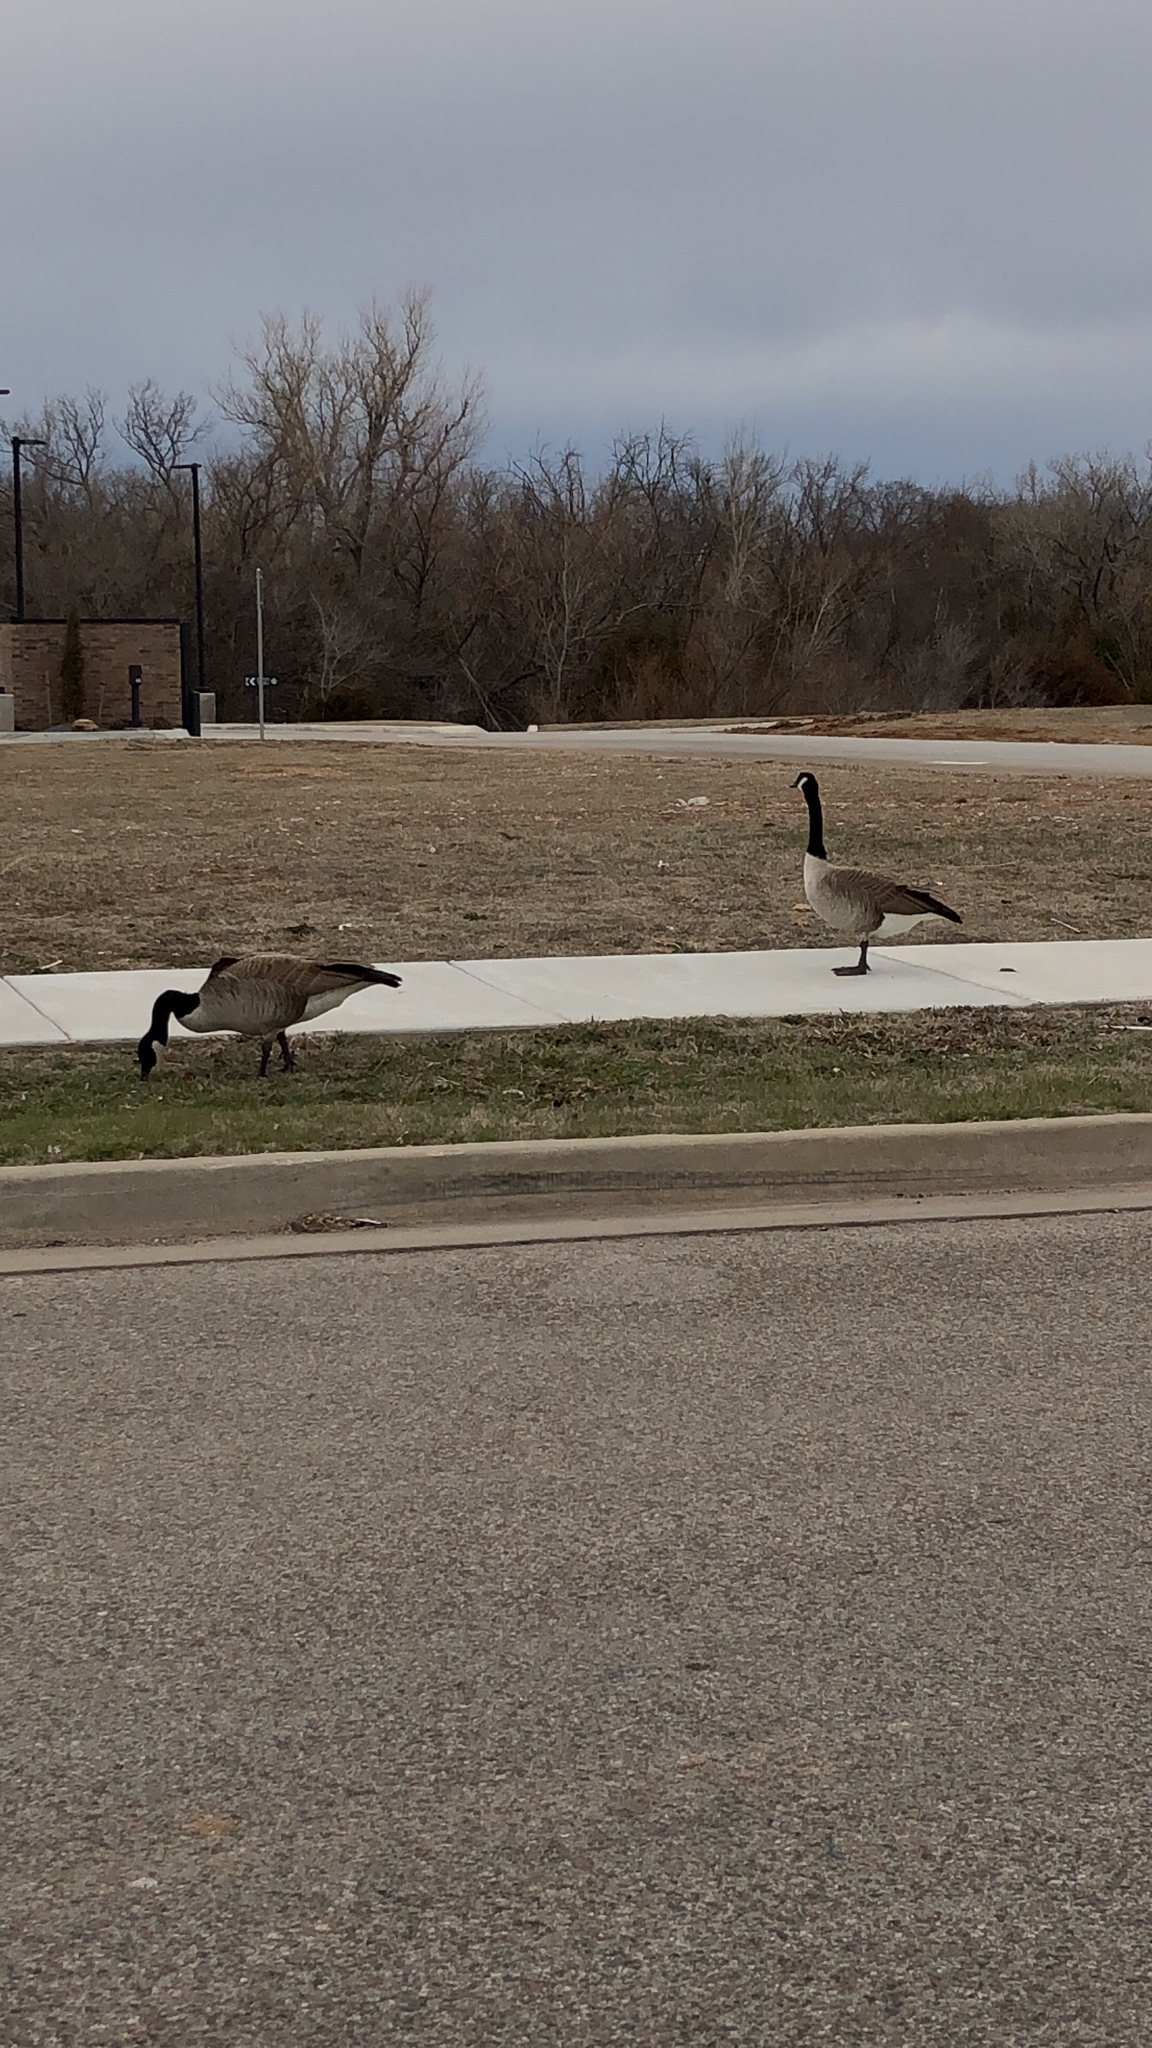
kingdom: Animalia
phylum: Chordata
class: Aves
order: Anseriformes
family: Anatidae
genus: Branta
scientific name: Branta canadensis
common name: Canada goose
